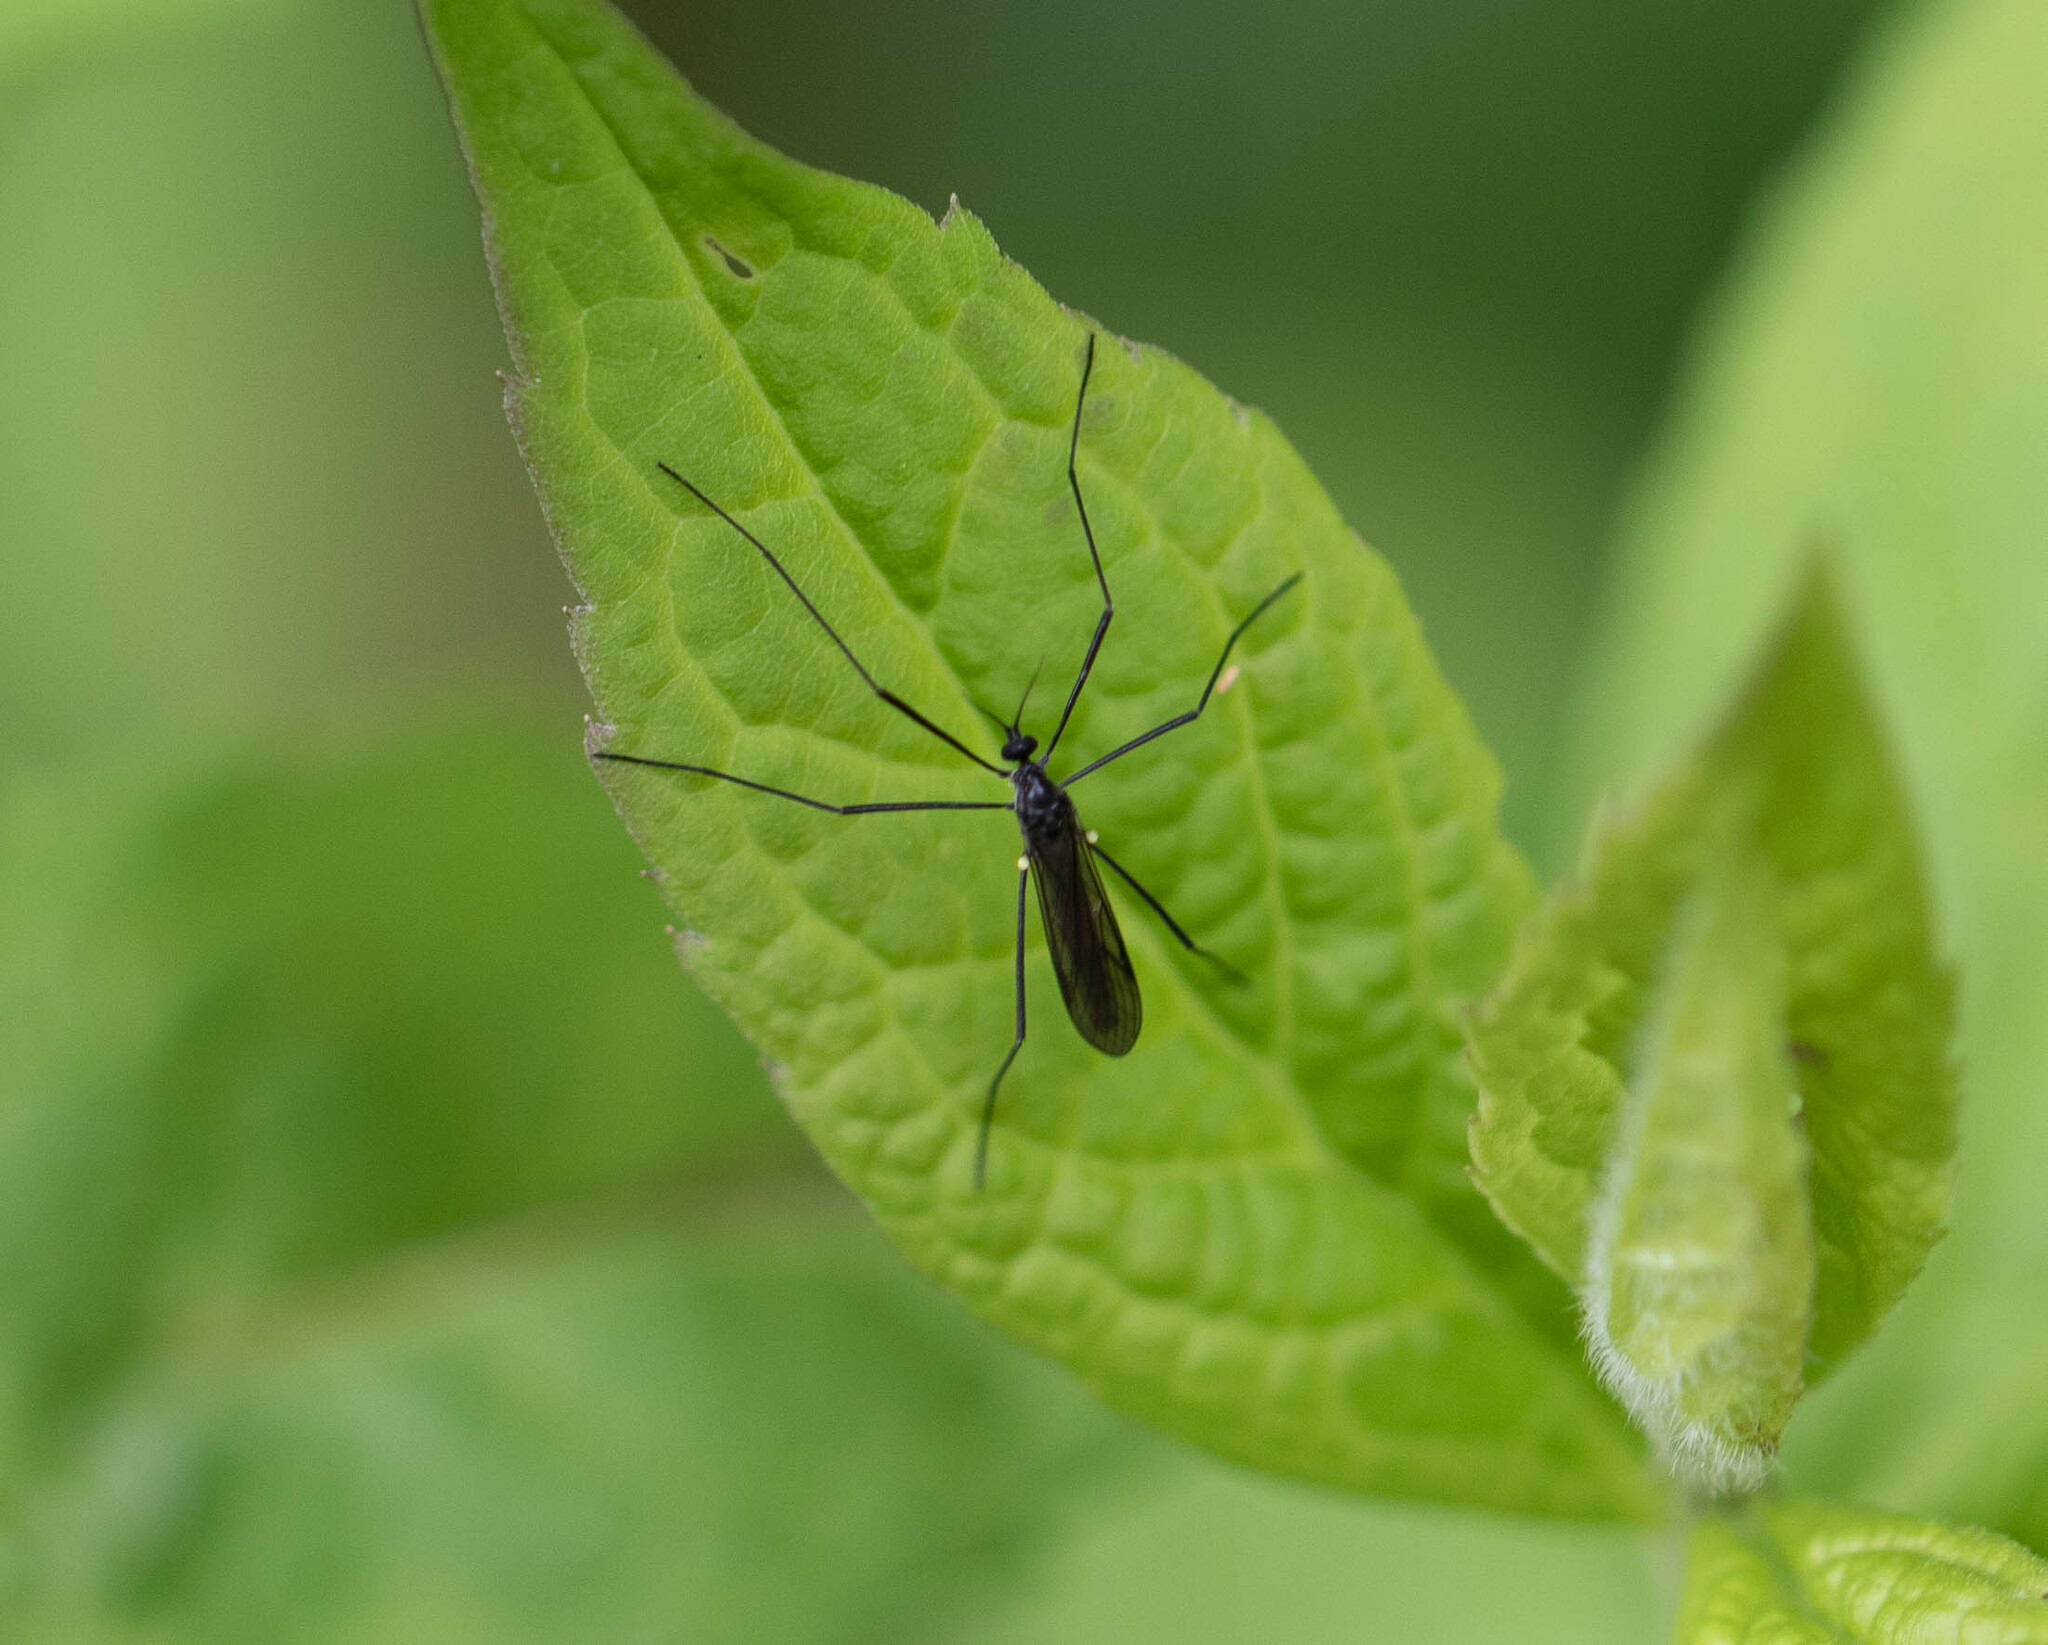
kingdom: Animalia
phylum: Arthropoda
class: Insecta
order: Diptera
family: Limoniidae
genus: Gnophomyia
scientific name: Gnophomyia tristissima
